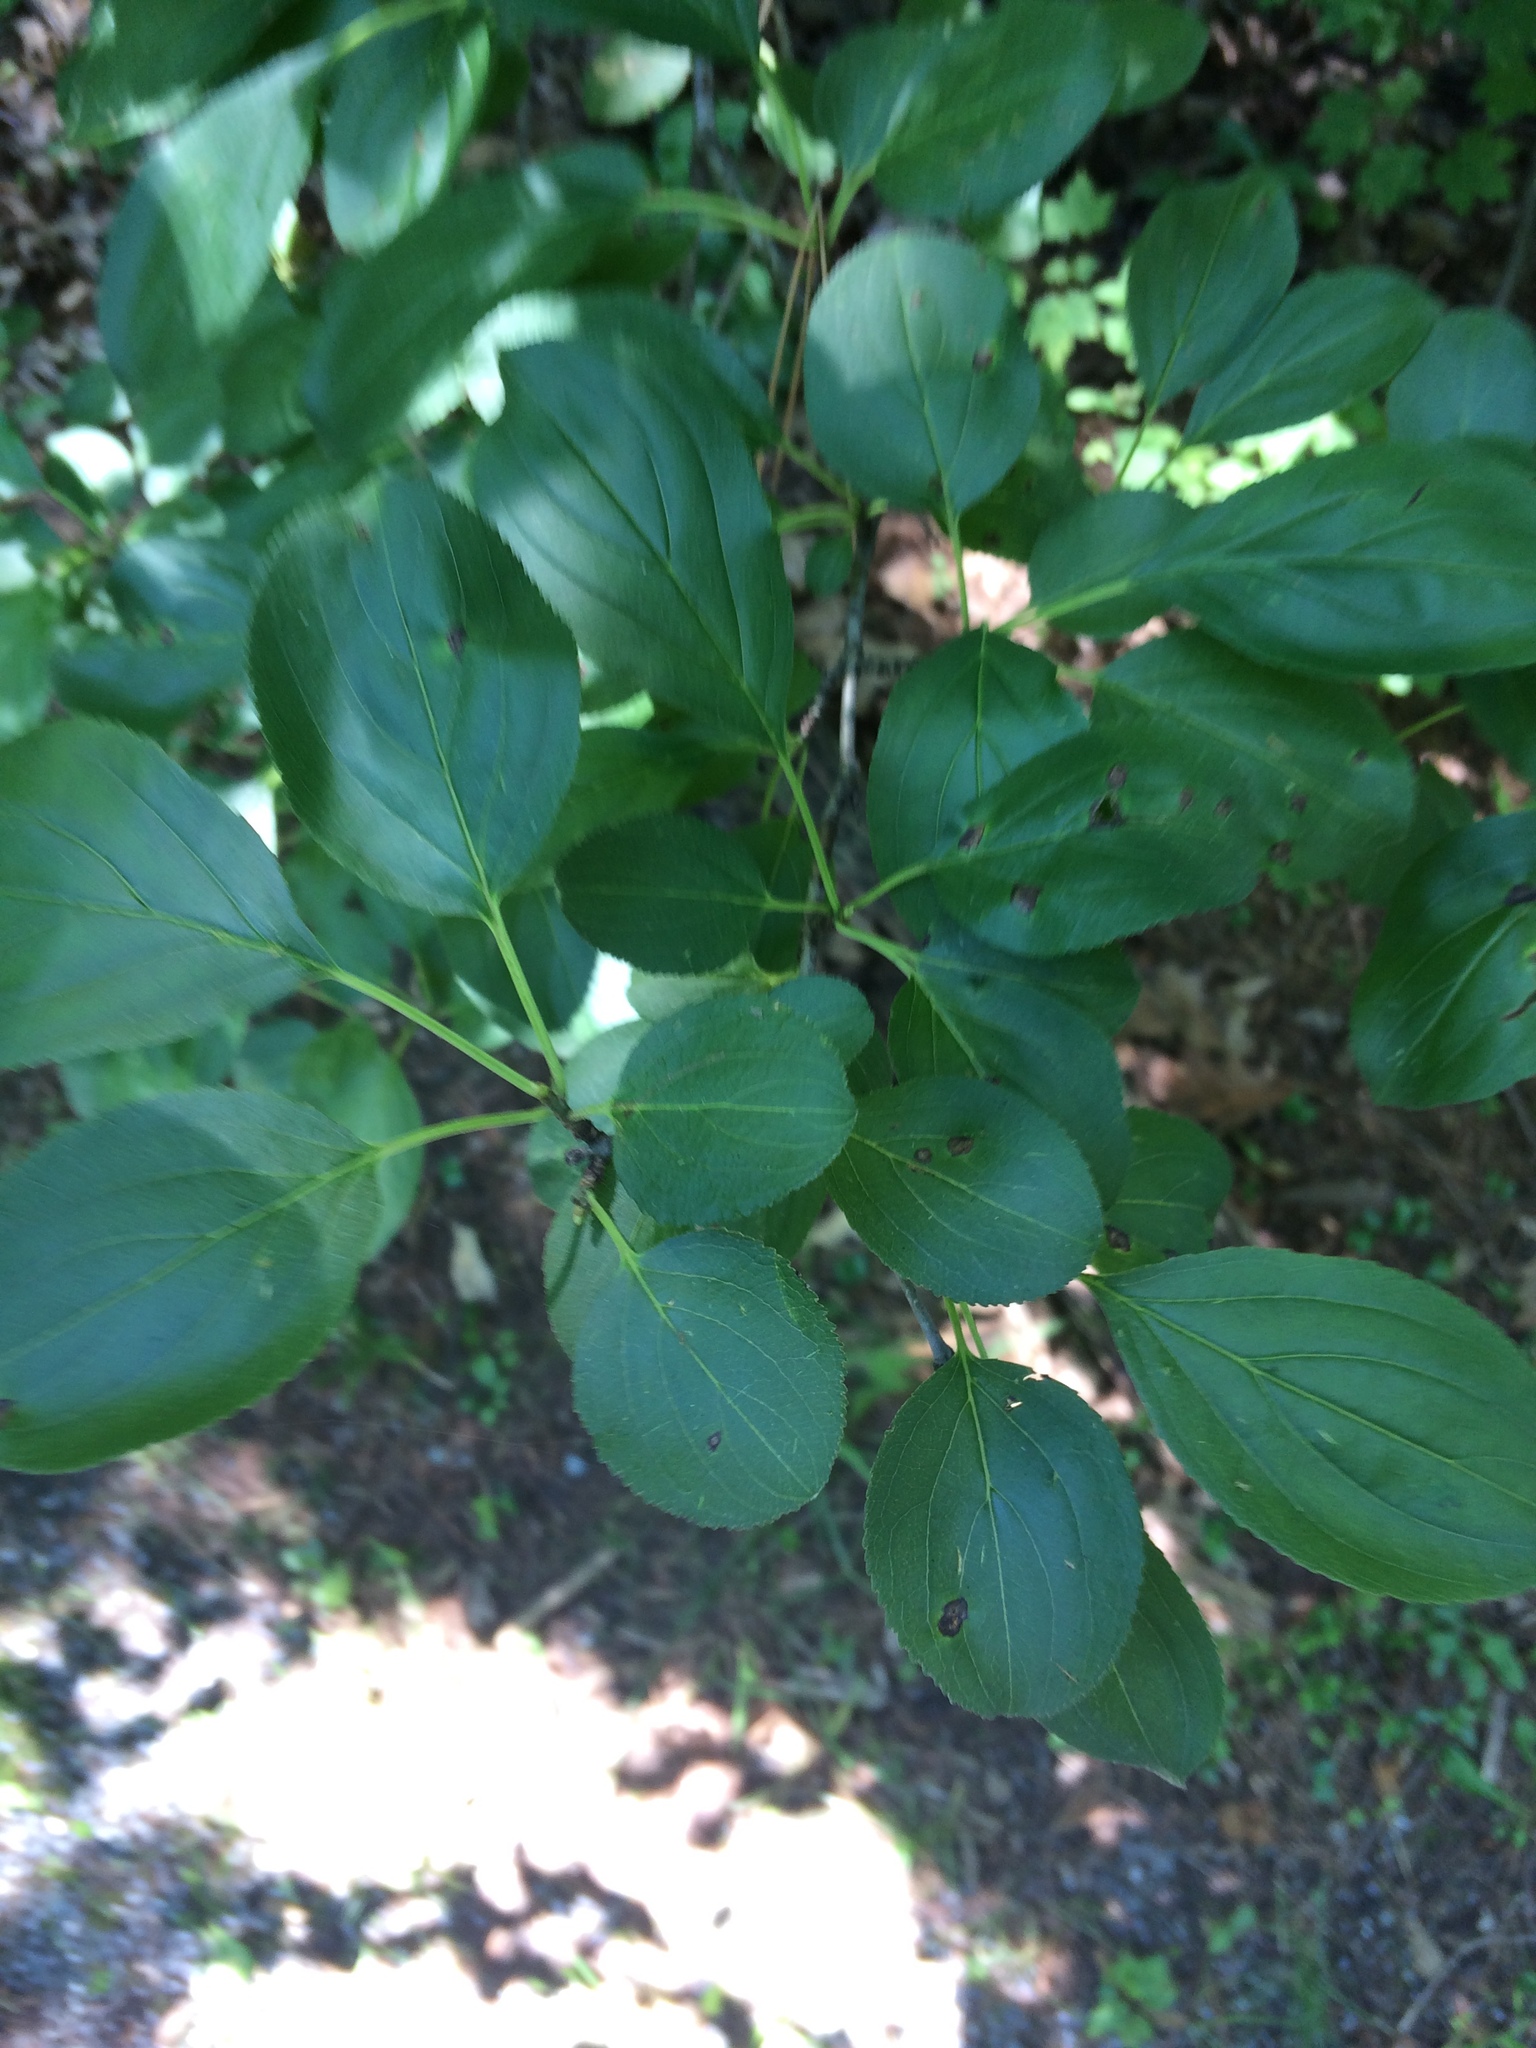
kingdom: Plantae
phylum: Tracheophyta
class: Magnoliopsida
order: Rosales
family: Rhamnaceae
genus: Rhamnus
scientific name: Rhamnus cathartica
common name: Common buckthorn
